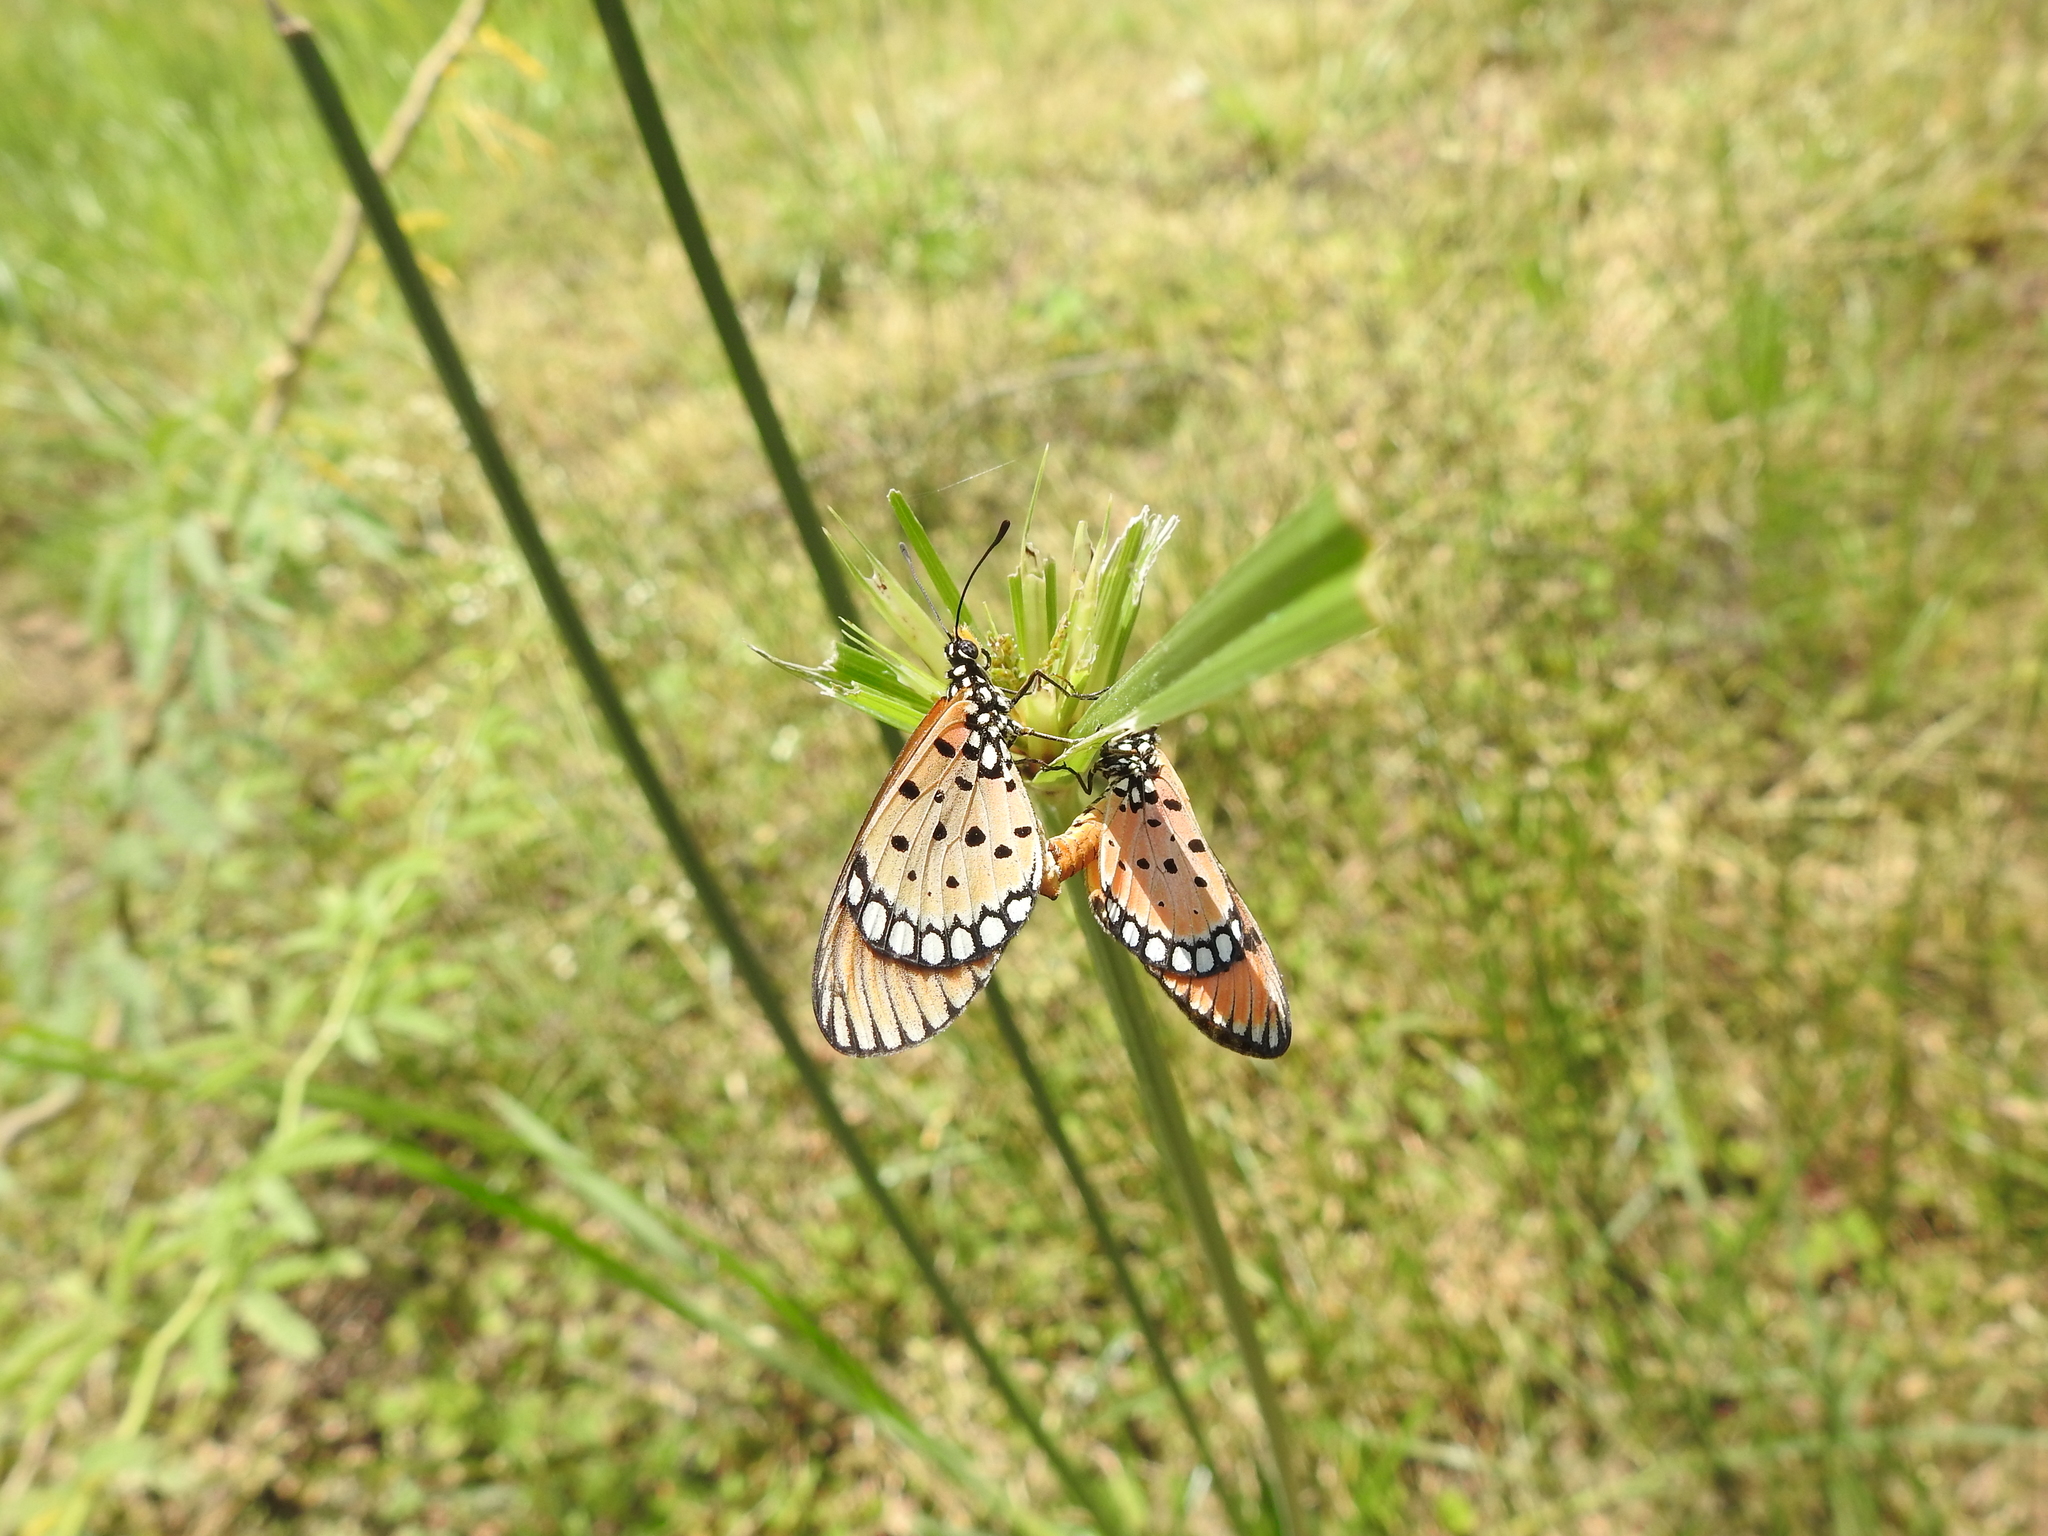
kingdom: Animalia
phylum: Arthropoda
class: Insecta
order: Lepidoptera
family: Nymphalidae
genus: Acraea
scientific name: Acraea terpsicore
